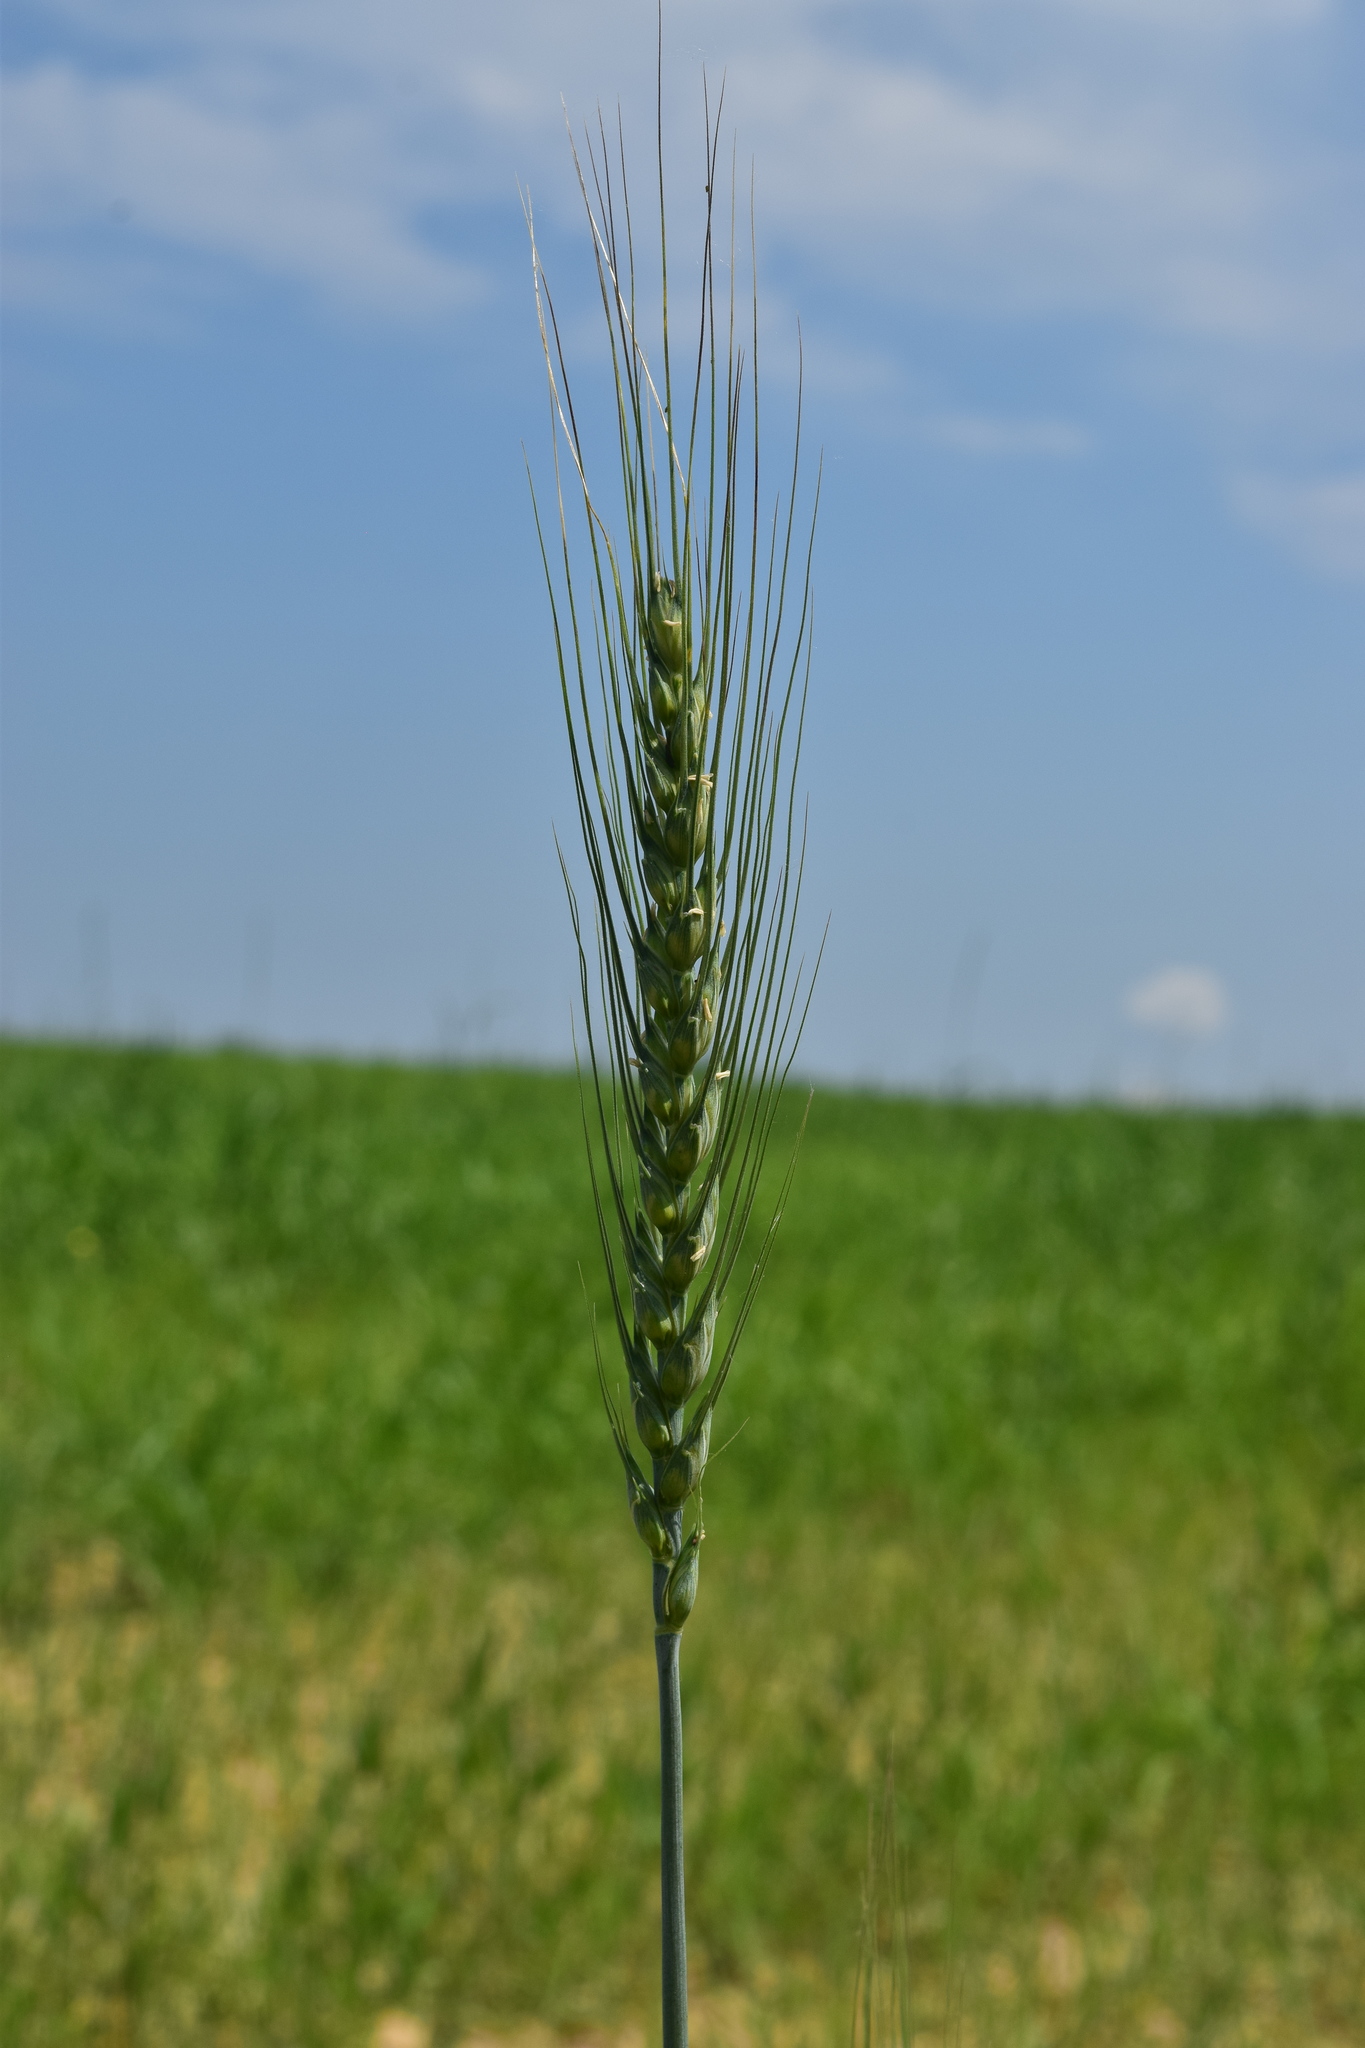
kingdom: Plantae
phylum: Tracheophyta
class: Liliopsida
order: Poales
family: Poaceae
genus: Triticum
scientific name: Triticum aestivum
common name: Common wheat
